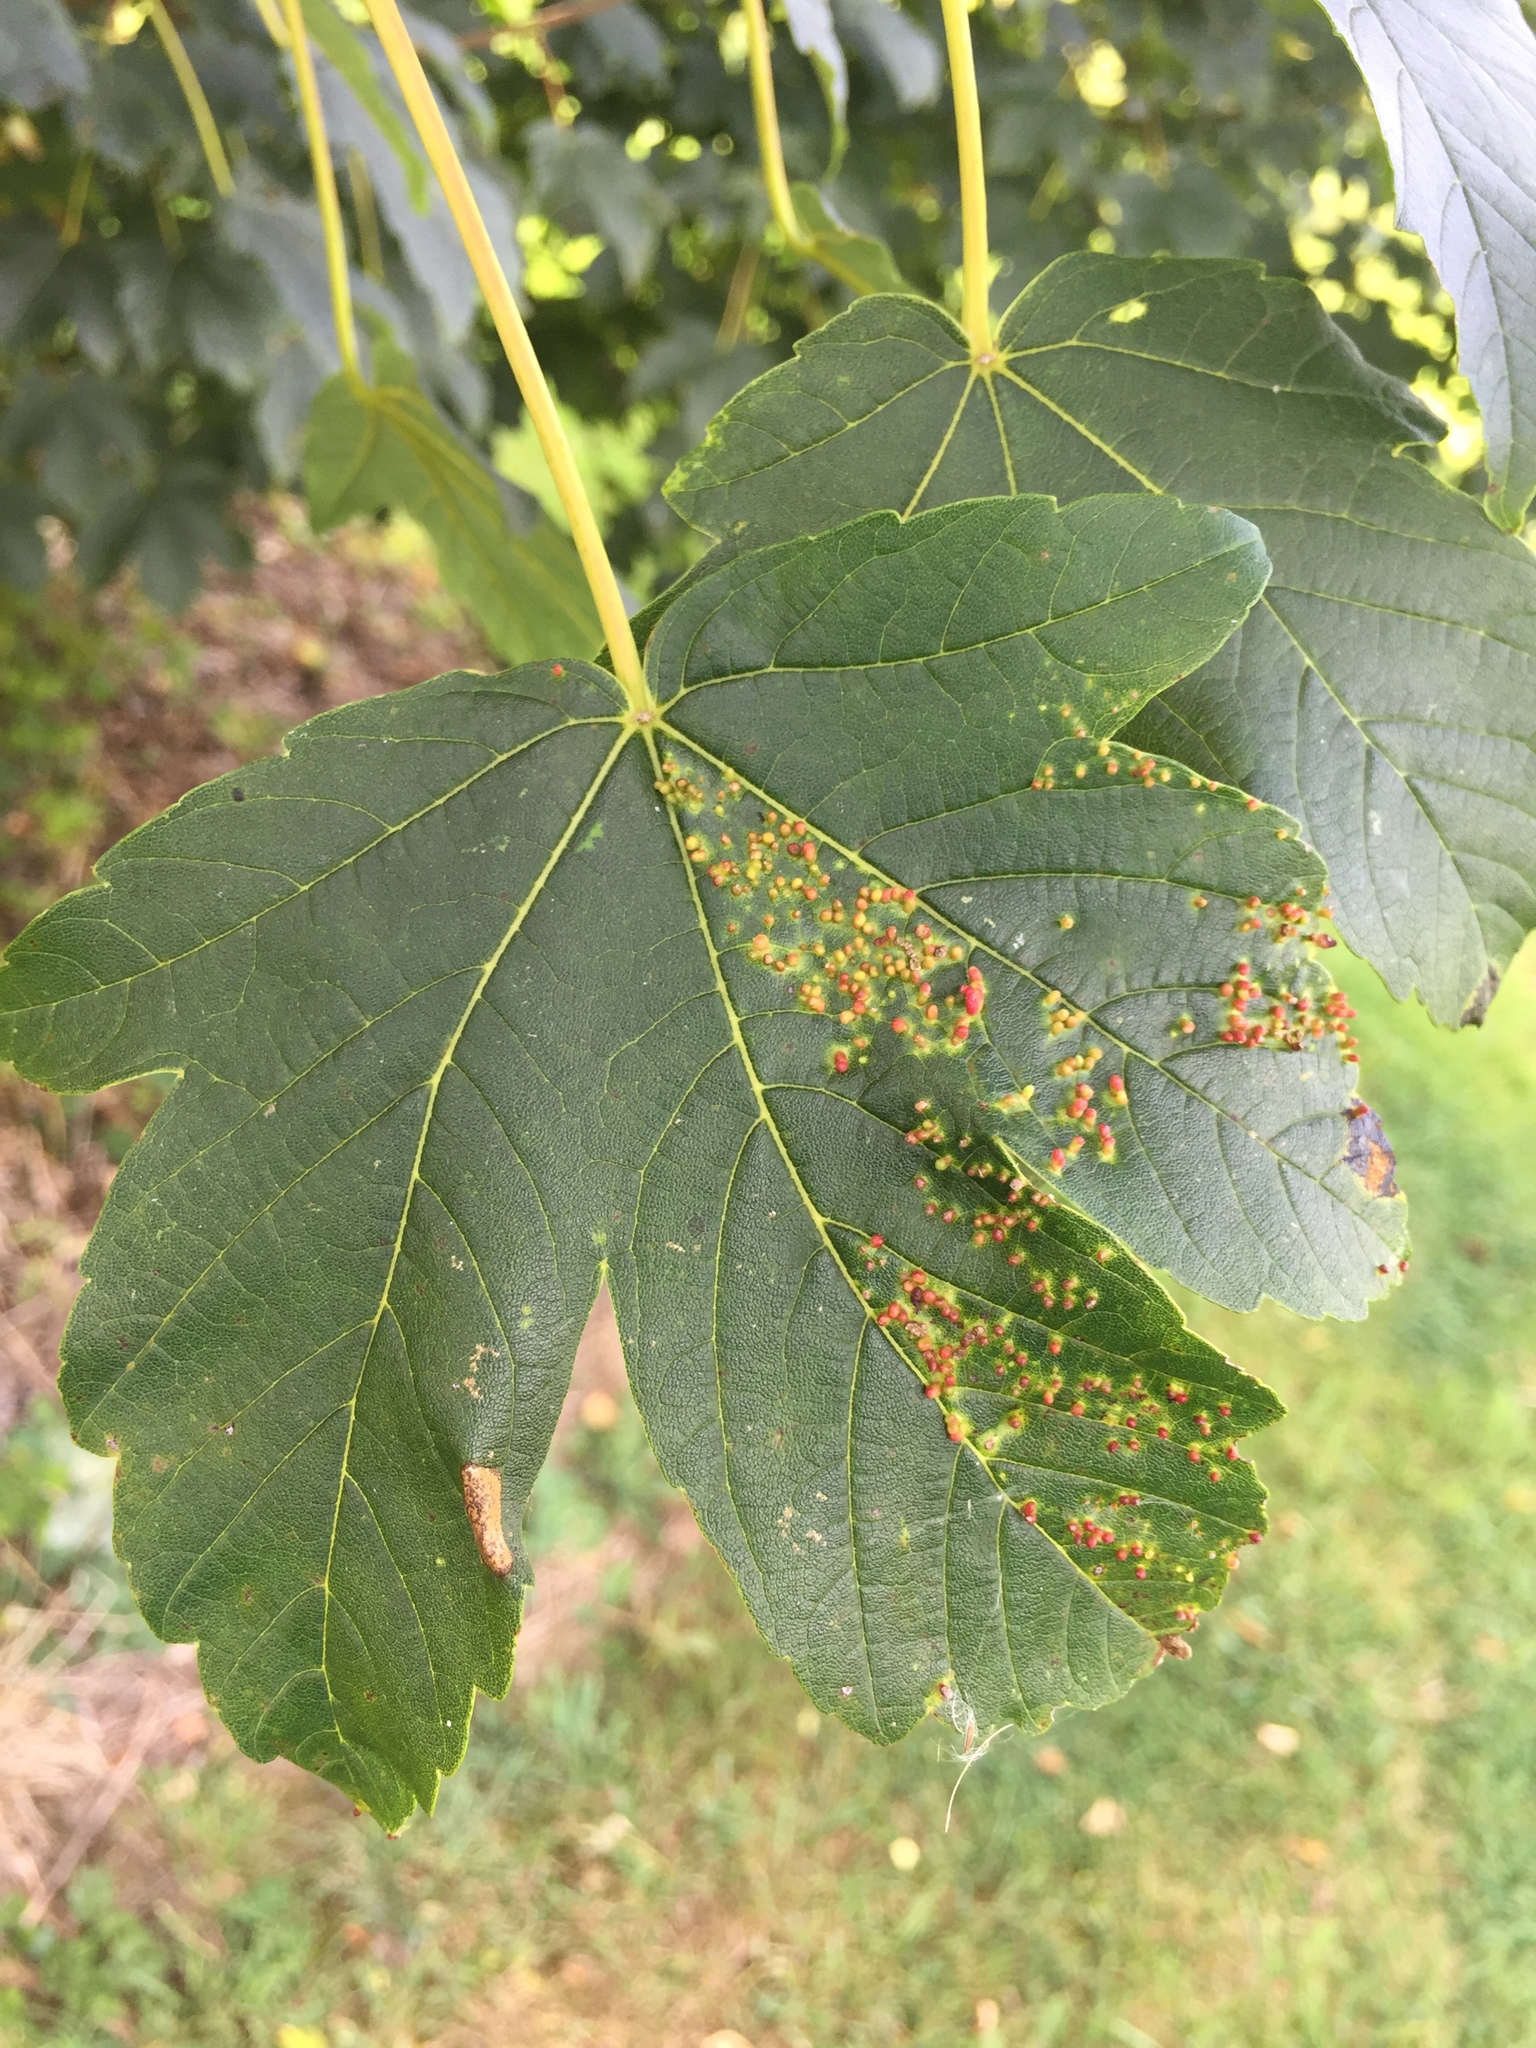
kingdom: Animalia
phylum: Arthropoda
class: Arachnida
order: Trombidiformes
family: Eriophyidae
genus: Aceria
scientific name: Aceria cephaloneus
